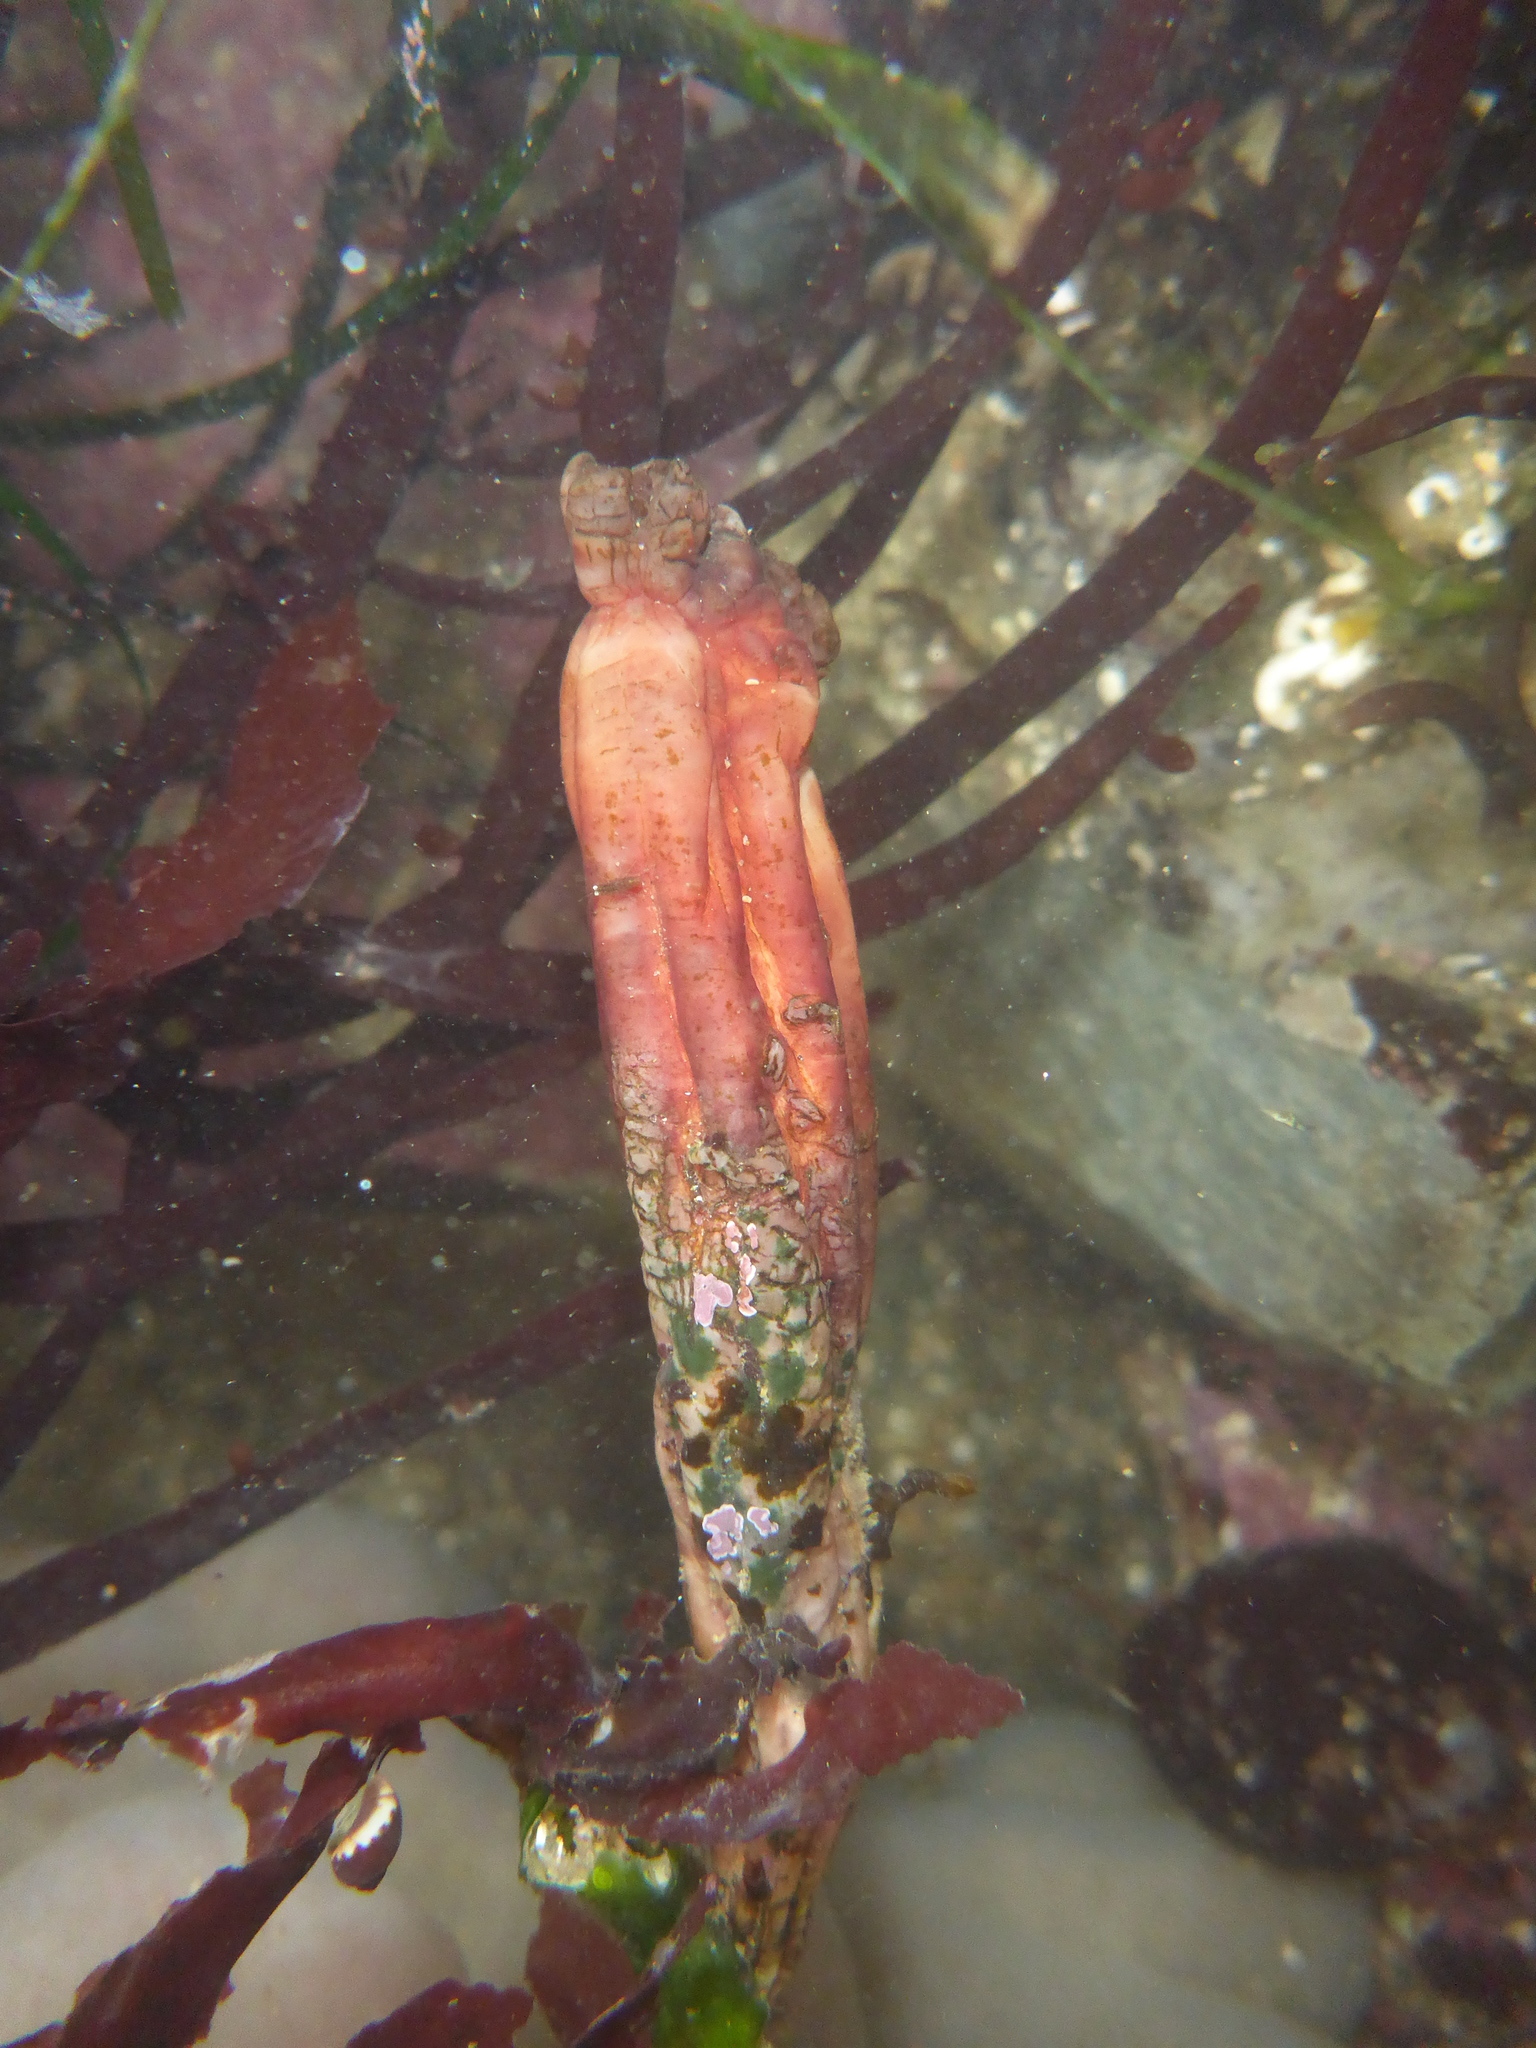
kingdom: Animalia
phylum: Chordata
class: Ascidiacea
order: Stolidobranchia
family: Styelidae
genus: Styela
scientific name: Styela montereyensis
